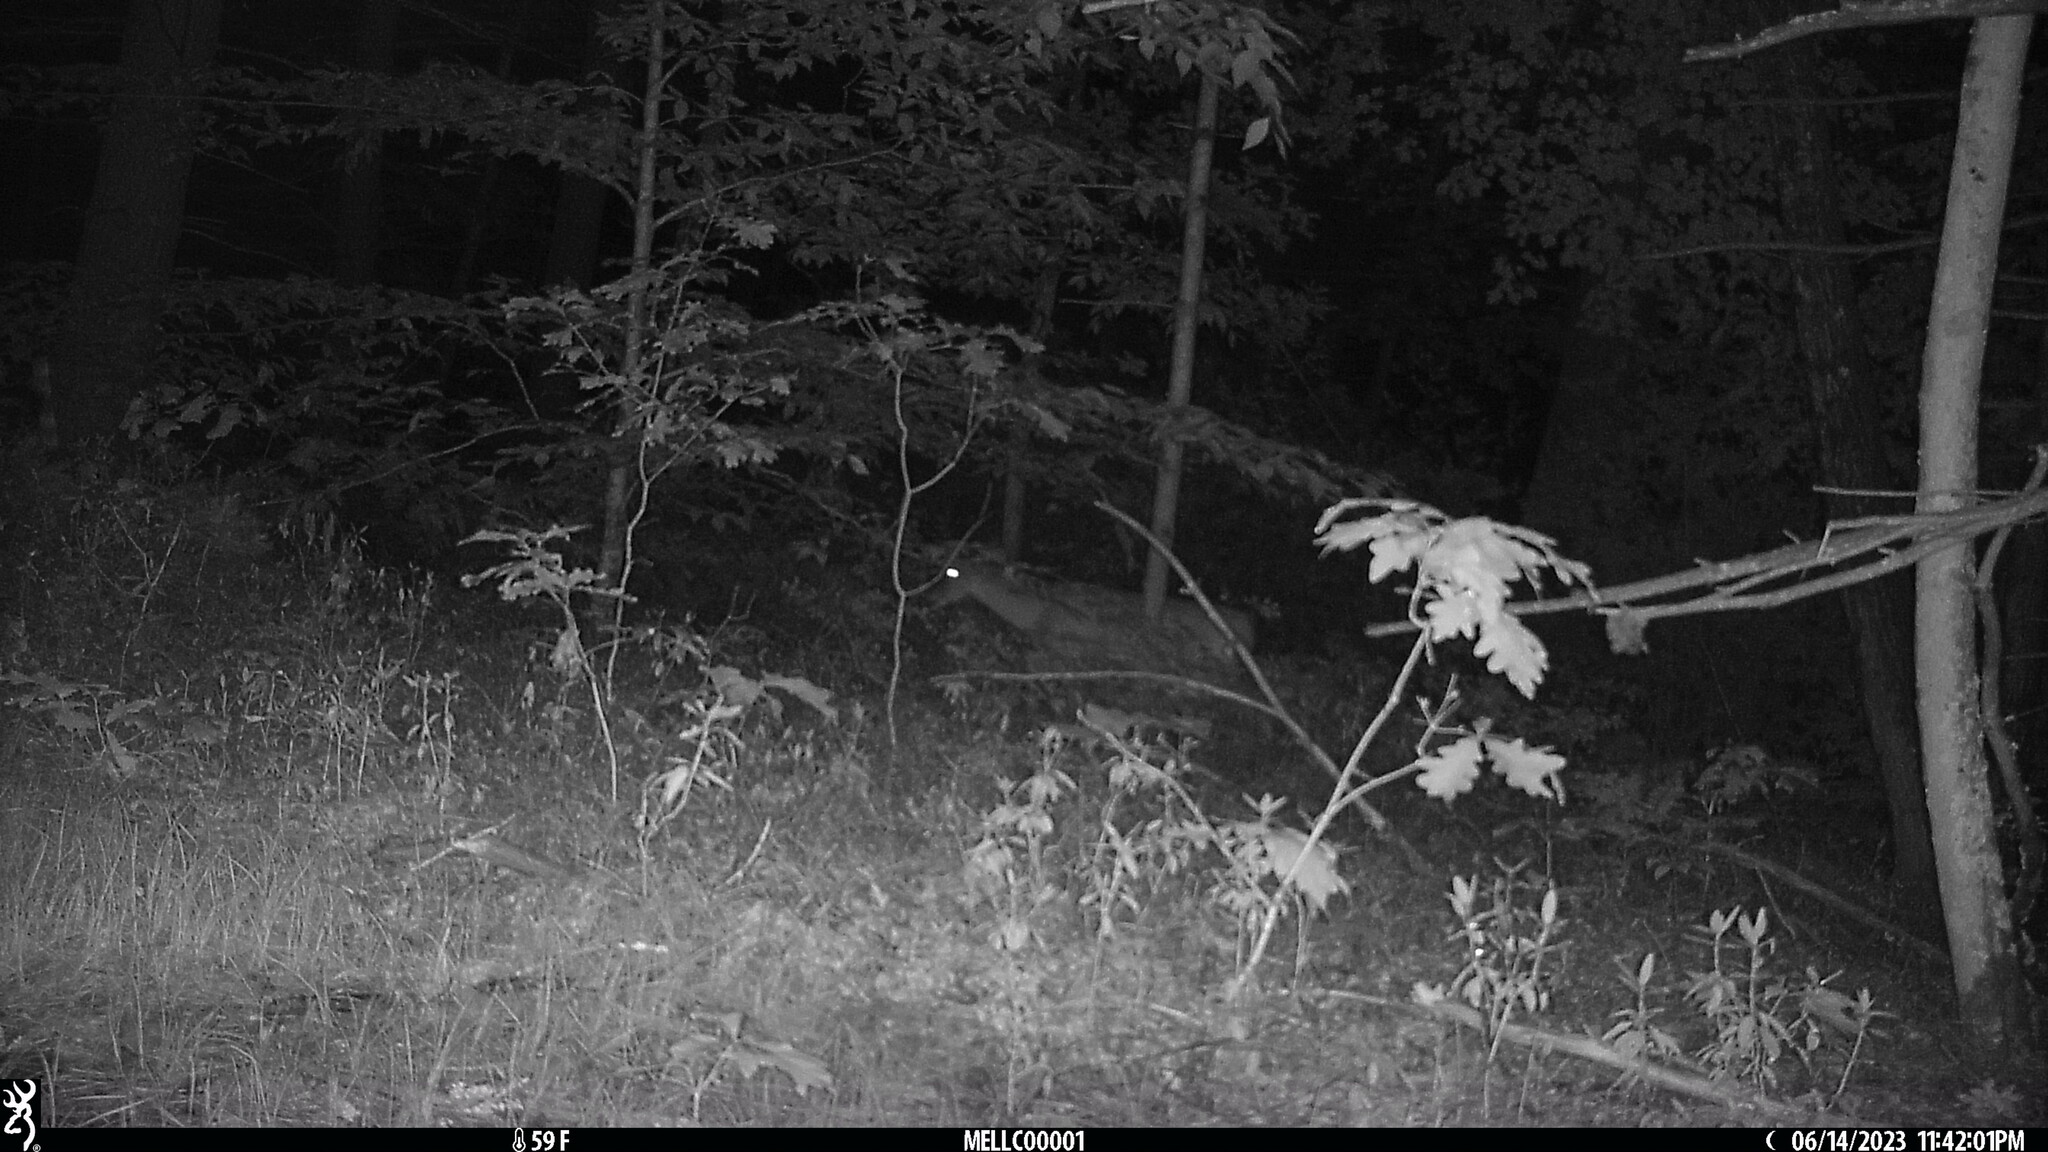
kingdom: Animalia
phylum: Chordata
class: Mammalia
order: Artiodactyla
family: Cervidae
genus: Odocoileus
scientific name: Odocoileus virginianus
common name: White-tailed deer
